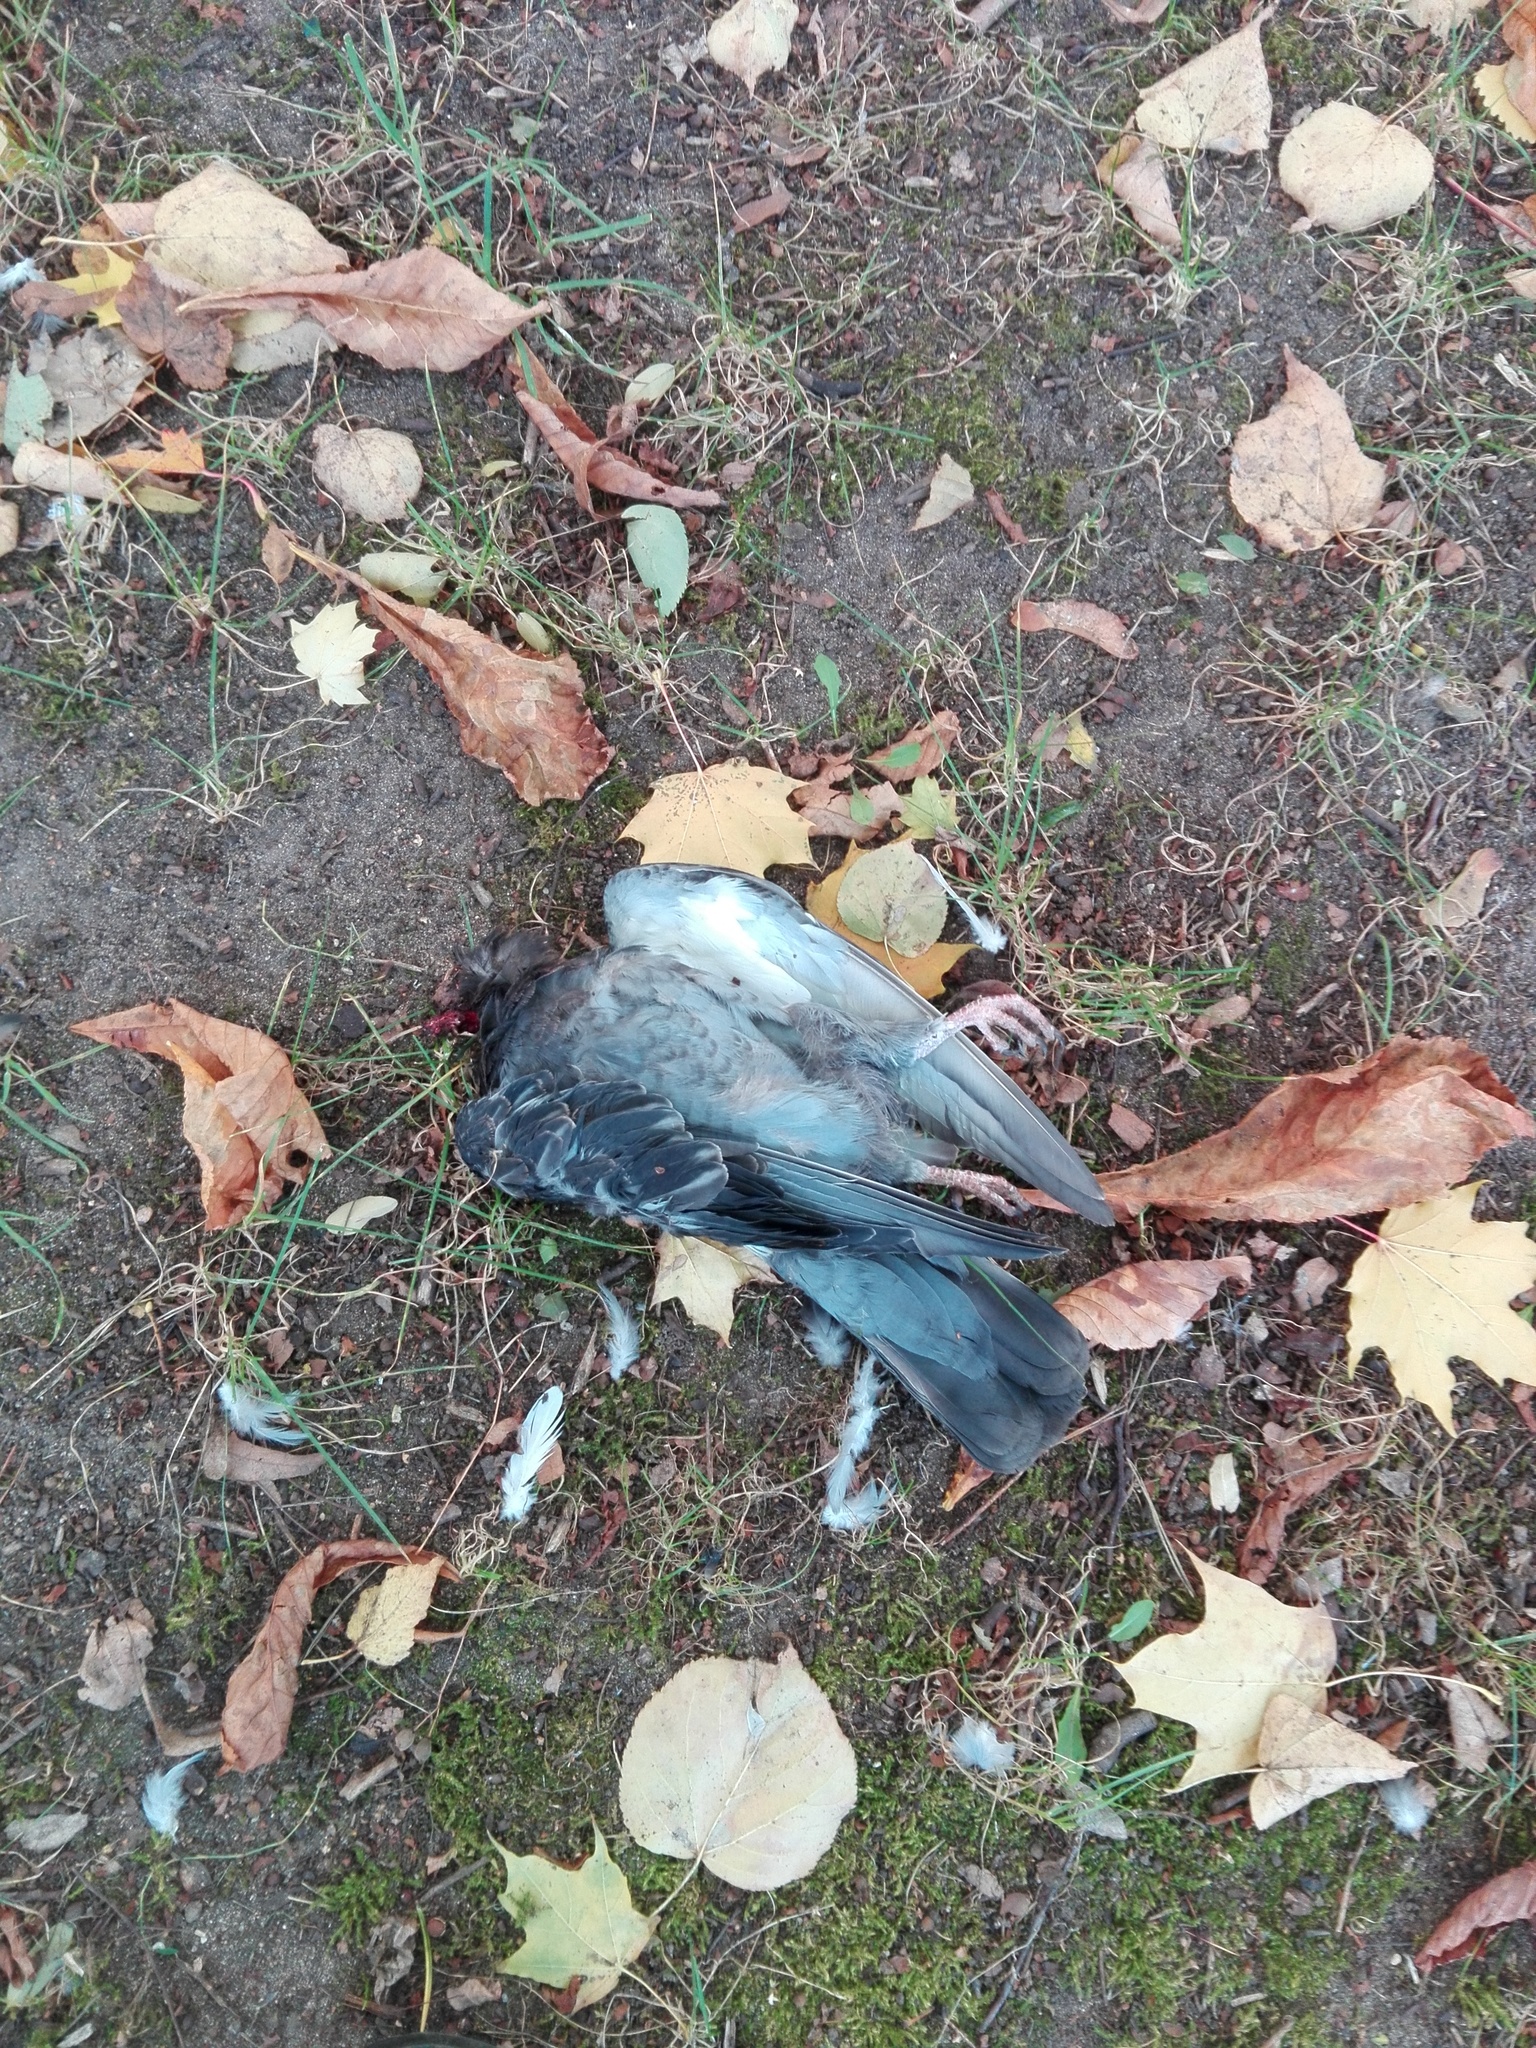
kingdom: Animalia
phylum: Chordata
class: Aves
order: Columbiformes
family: Columbidae
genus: Columba
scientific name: Columba livia
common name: Rock pigeon
